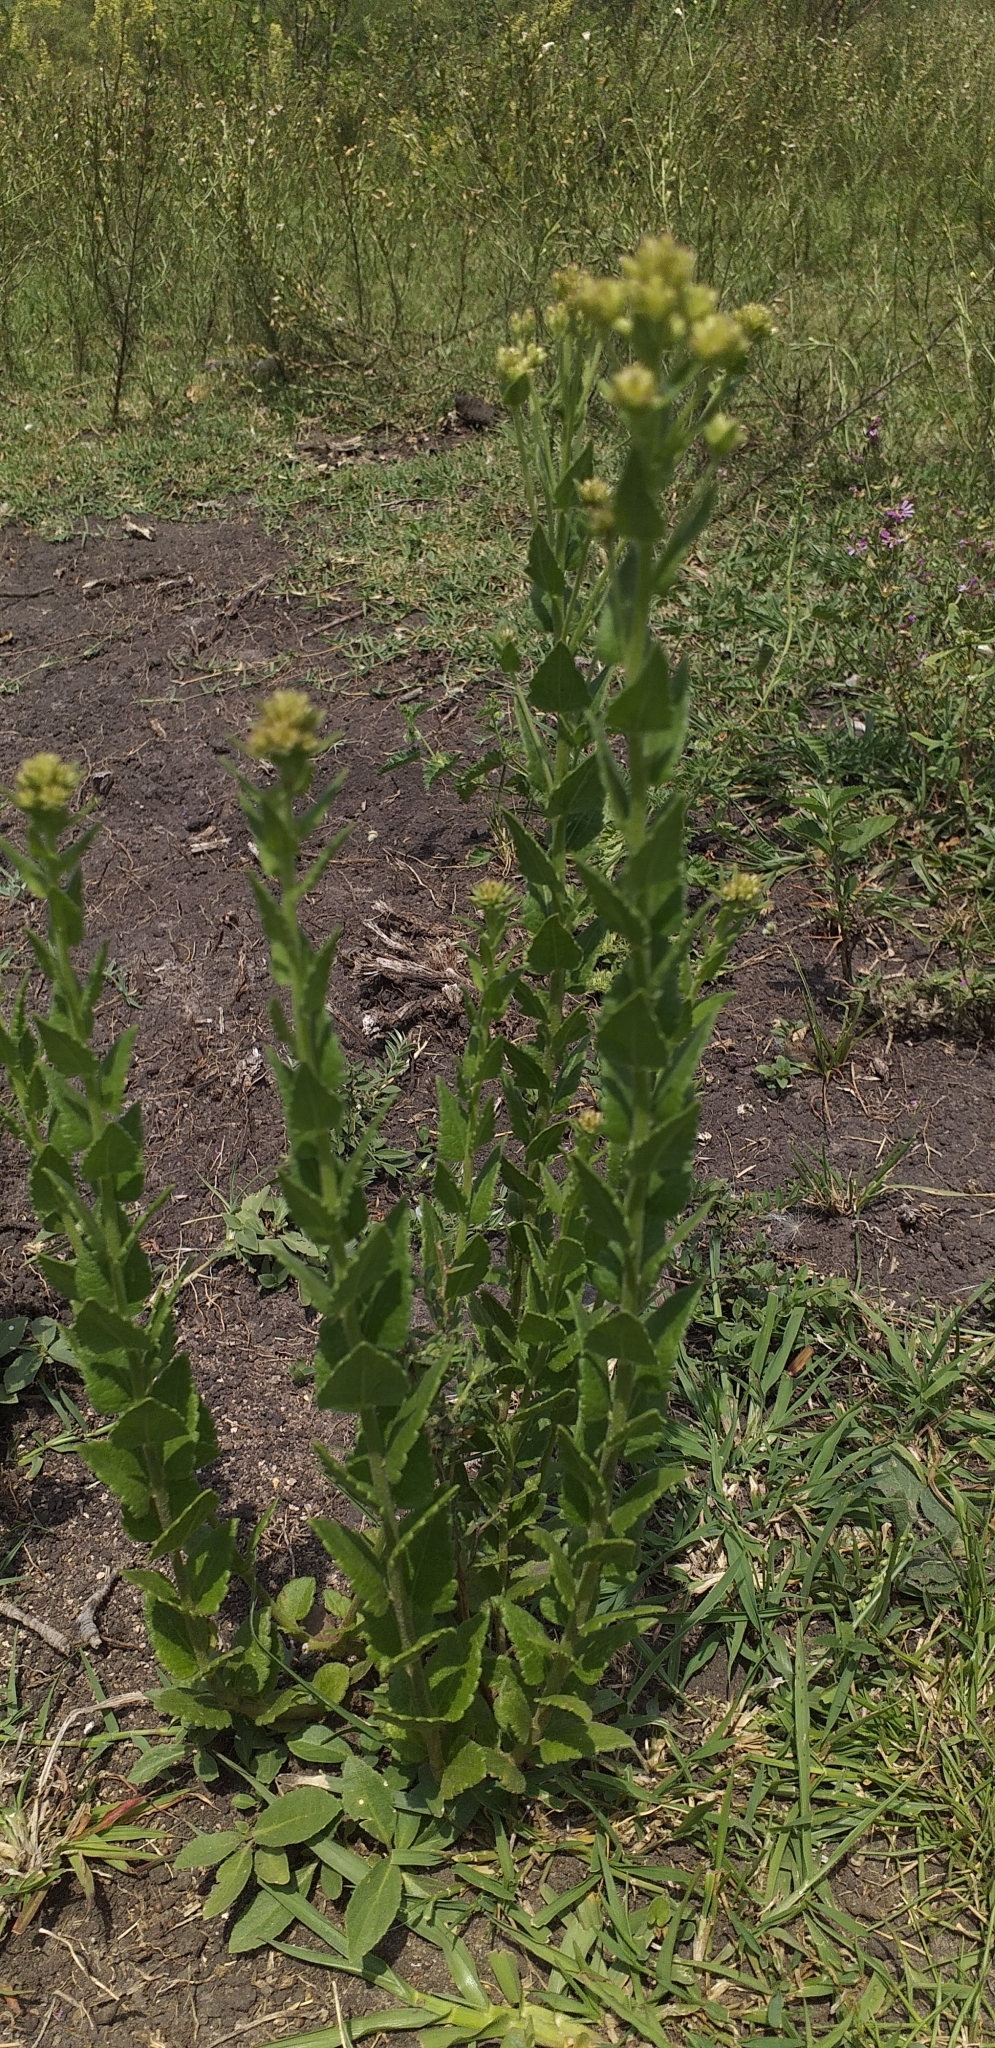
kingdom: Plantae
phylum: Tracheophyta
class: Magnoliopsida
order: Asterales
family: Asteraceae
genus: Chromolaena
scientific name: Chromolaena hirsuta
